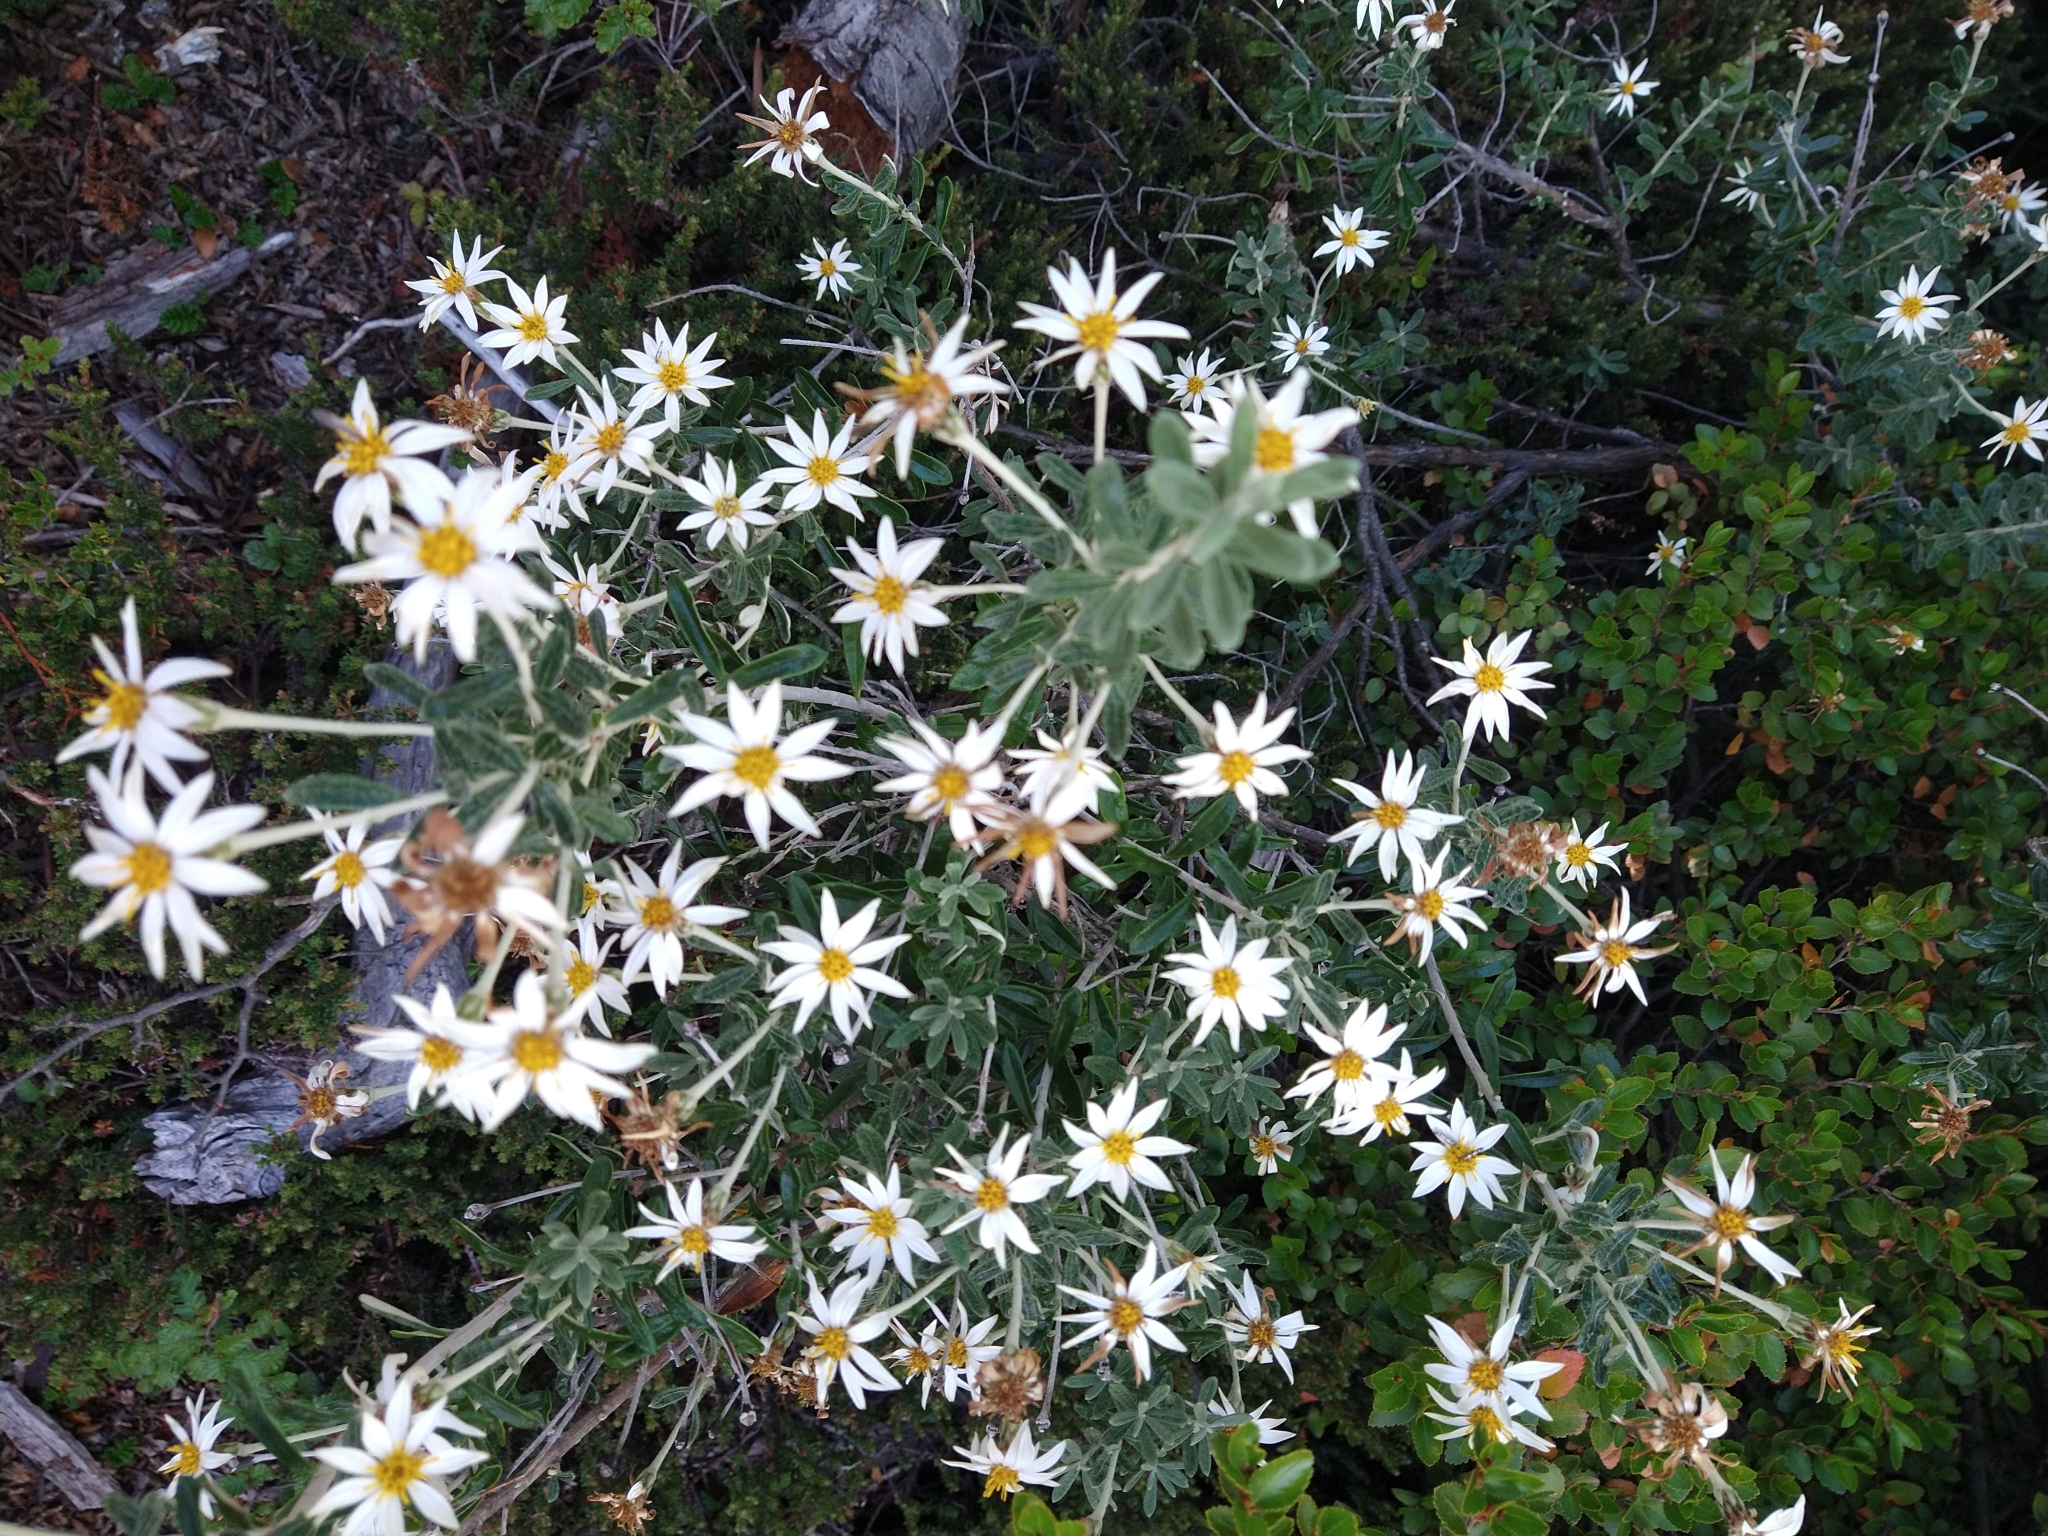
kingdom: Plantae
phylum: Tracheophyta
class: Magnoliopsida
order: Asterales
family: Asteraceae
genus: Chiliotrichum
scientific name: Chiliotrichum diffusum
